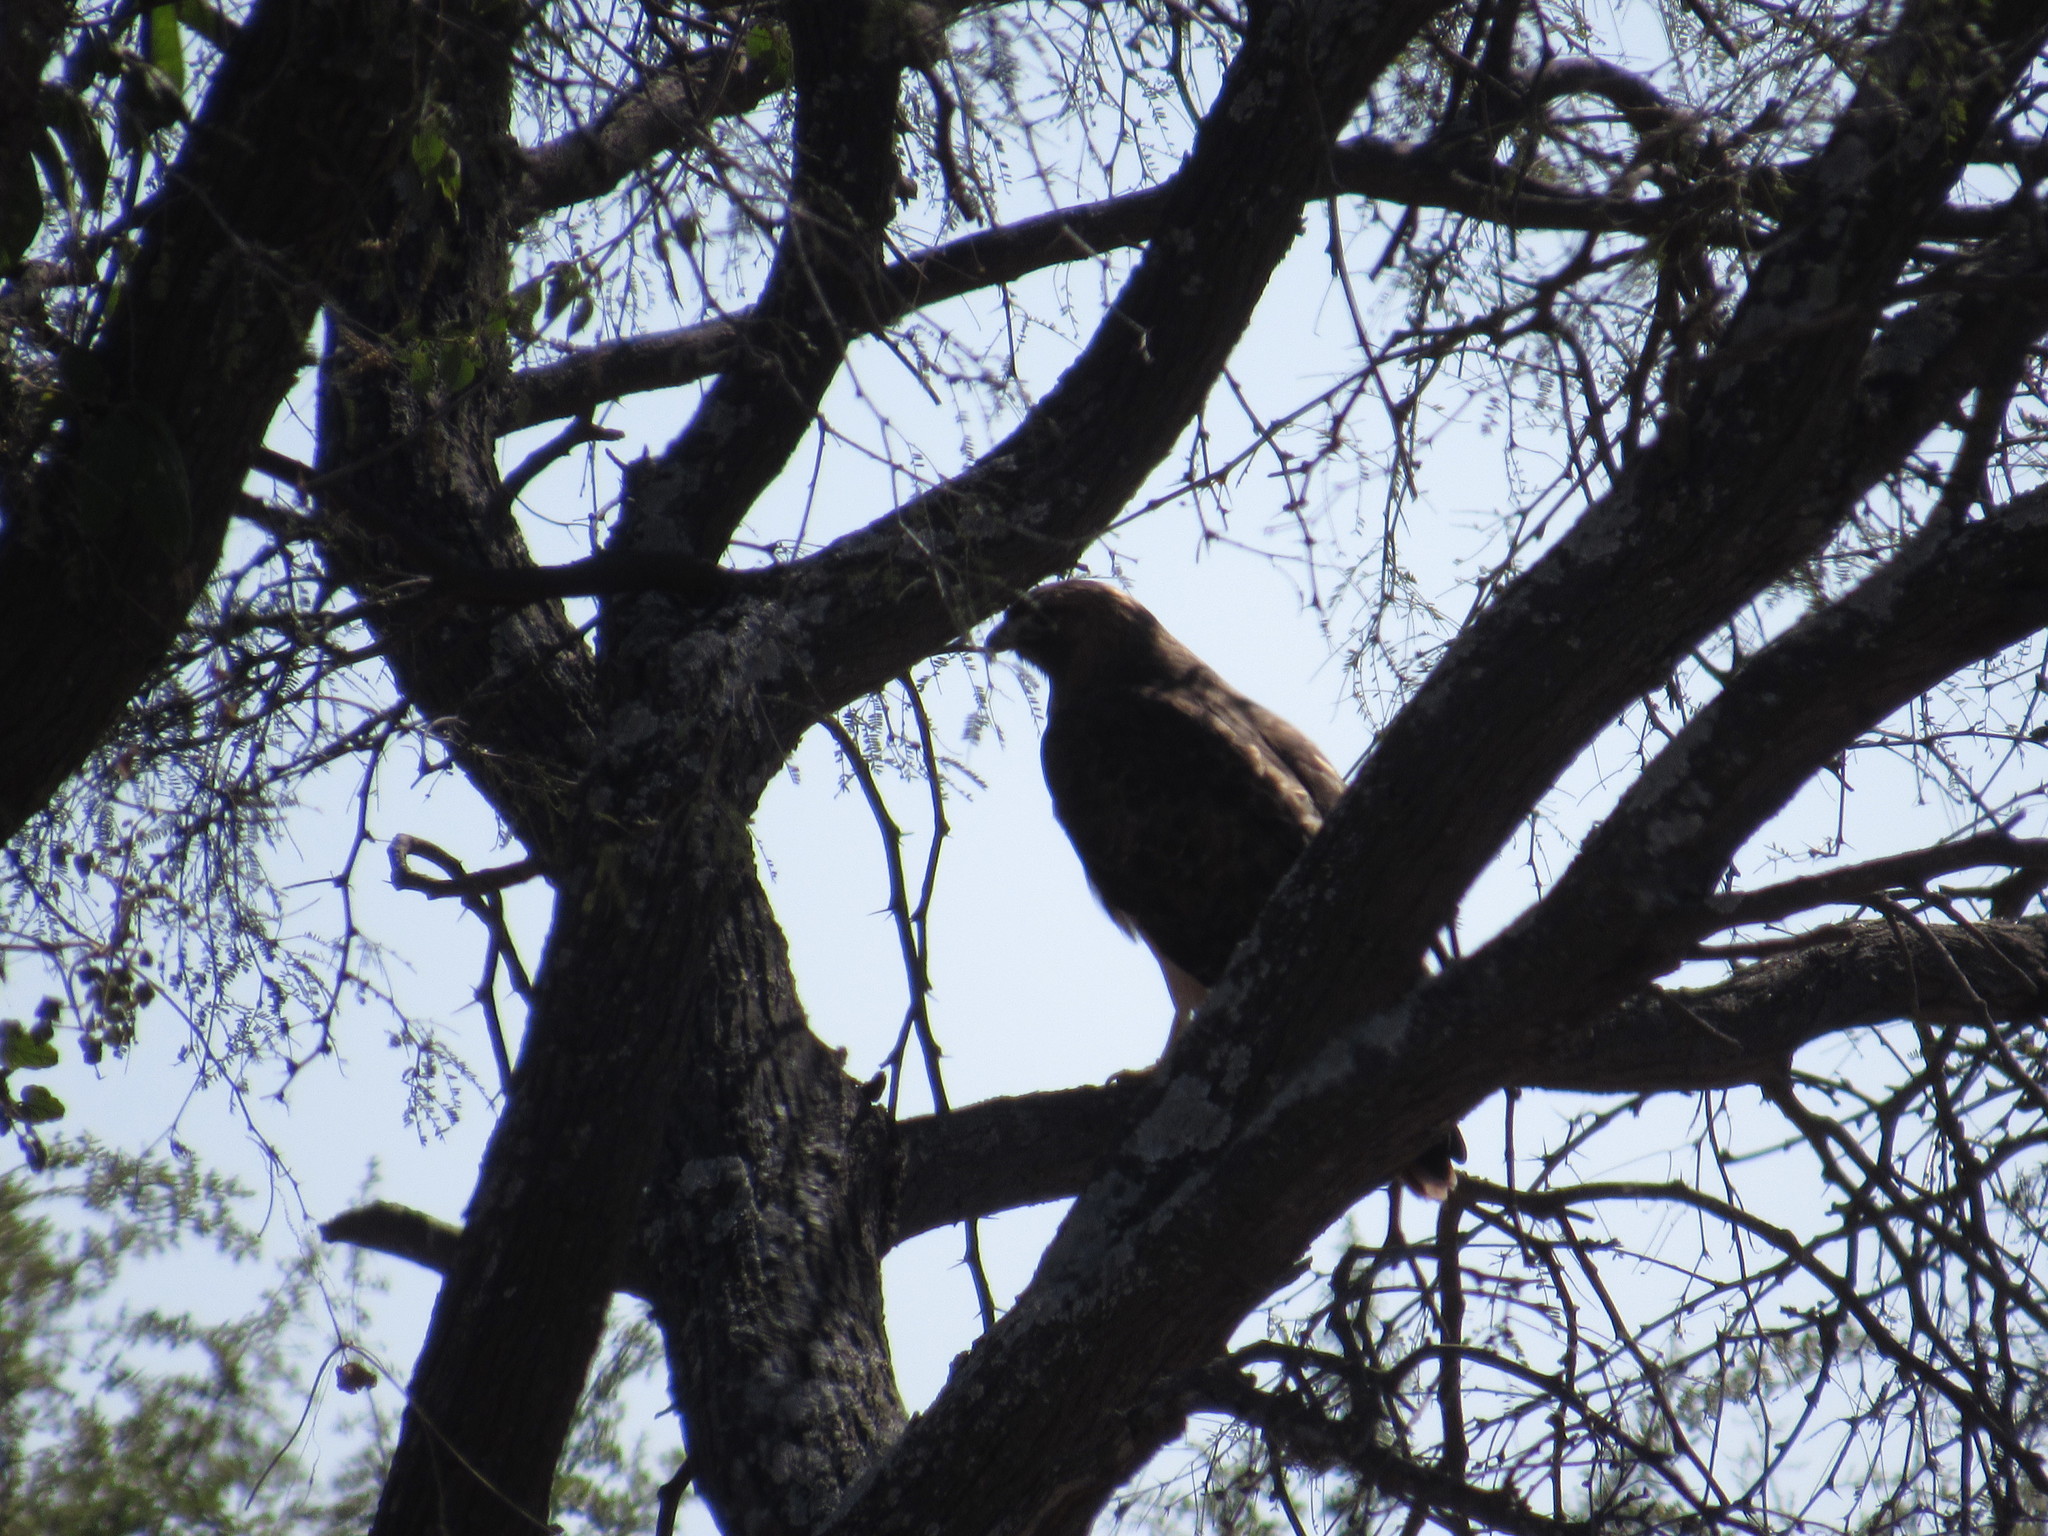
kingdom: Animalia
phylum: Chordata
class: Aves
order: Accipitriformes
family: Accipitridae
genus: Buteo
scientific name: Buteo jamaicensis
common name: Red-tailed hawk
